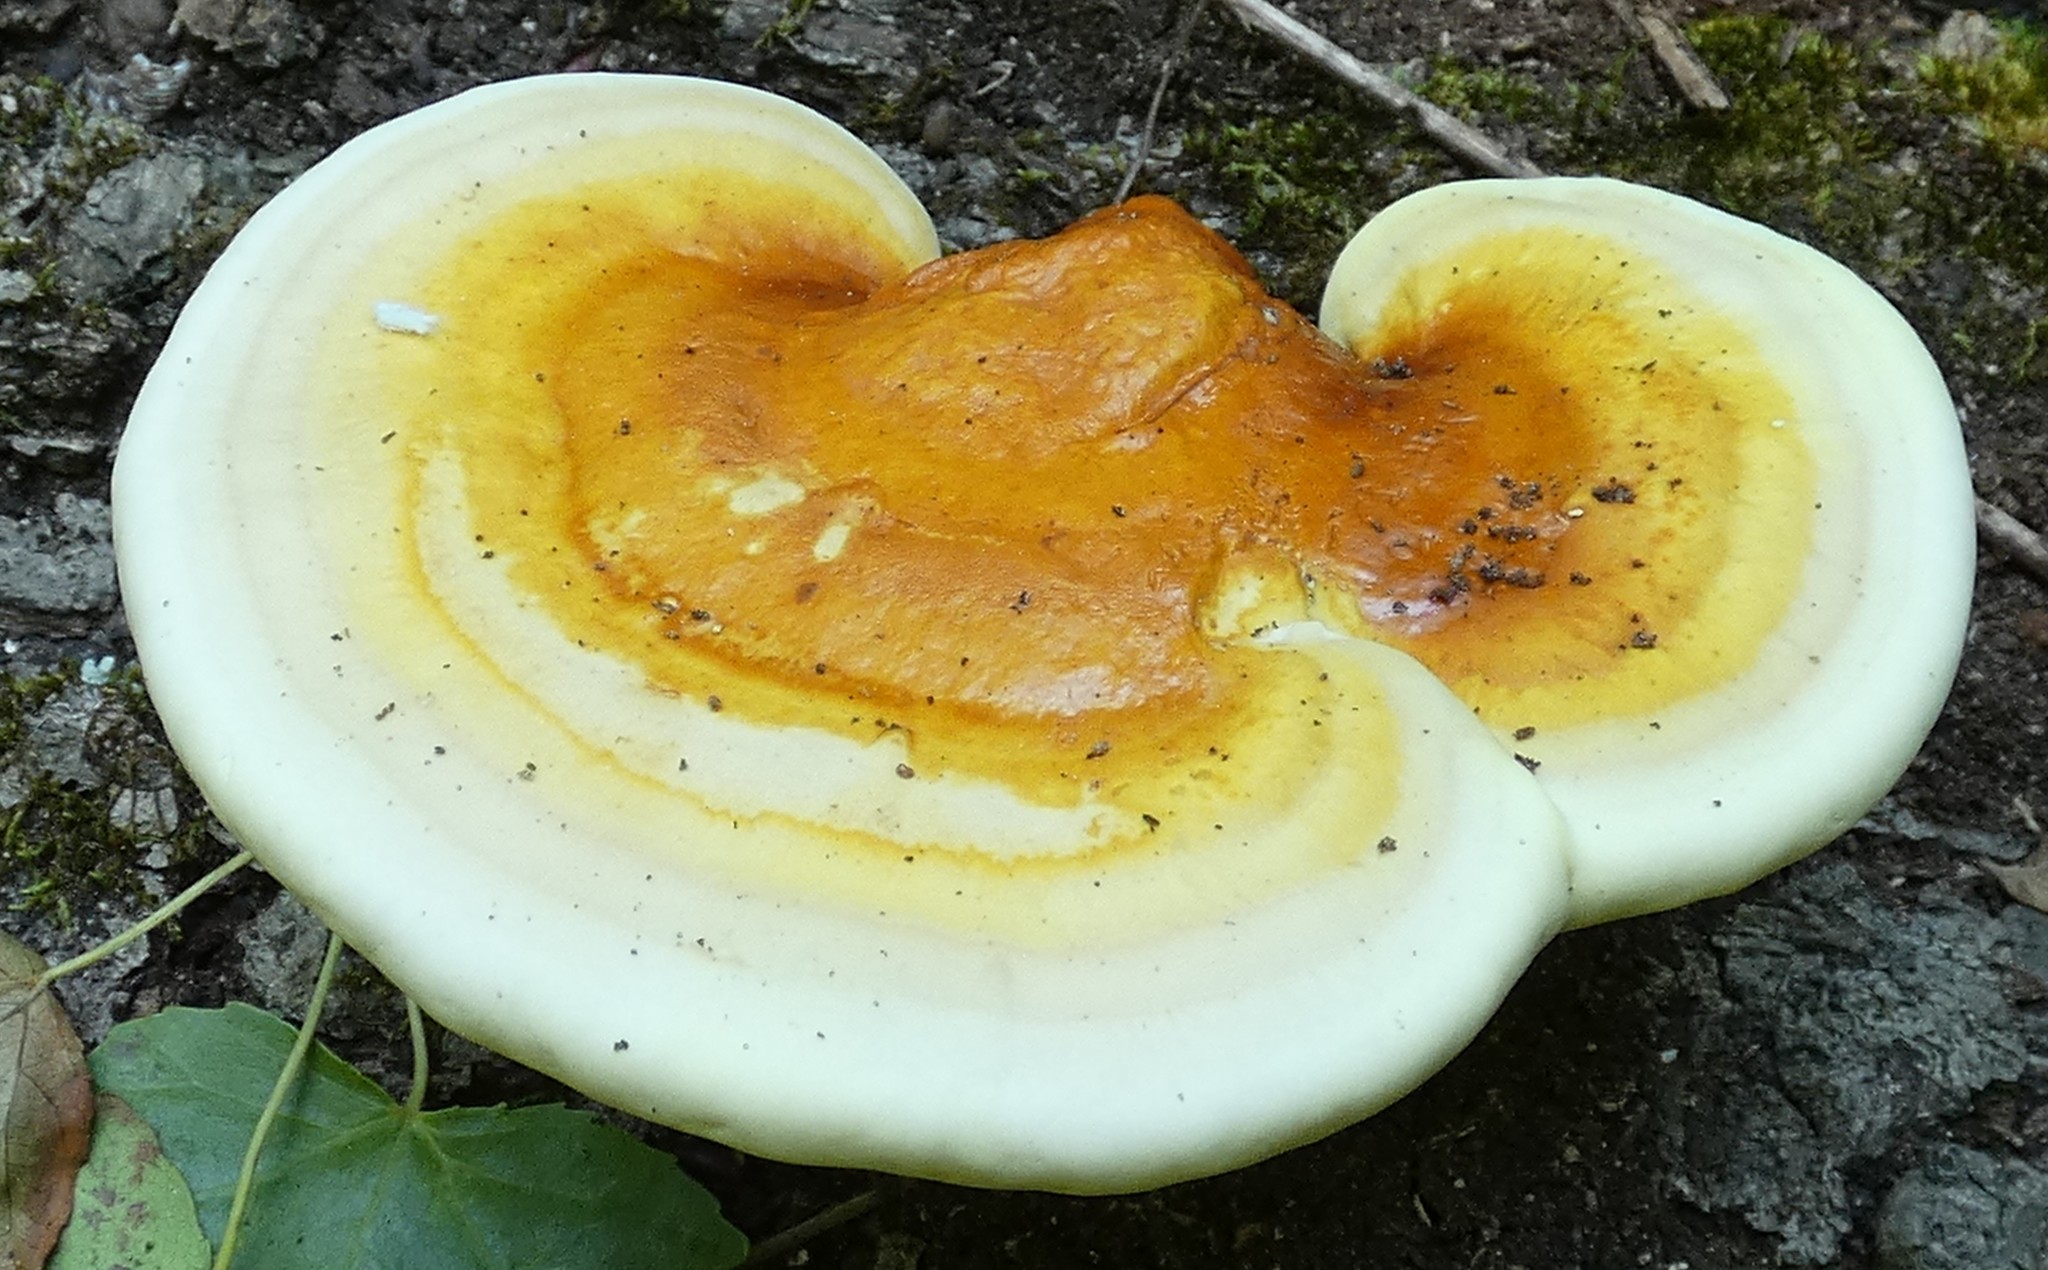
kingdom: Fungi
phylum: Basidiomycota
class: Agaricomycetes
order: Polyporales
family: Polyporaceae
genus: Ganoderma
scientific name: Ganoderma curtisii
